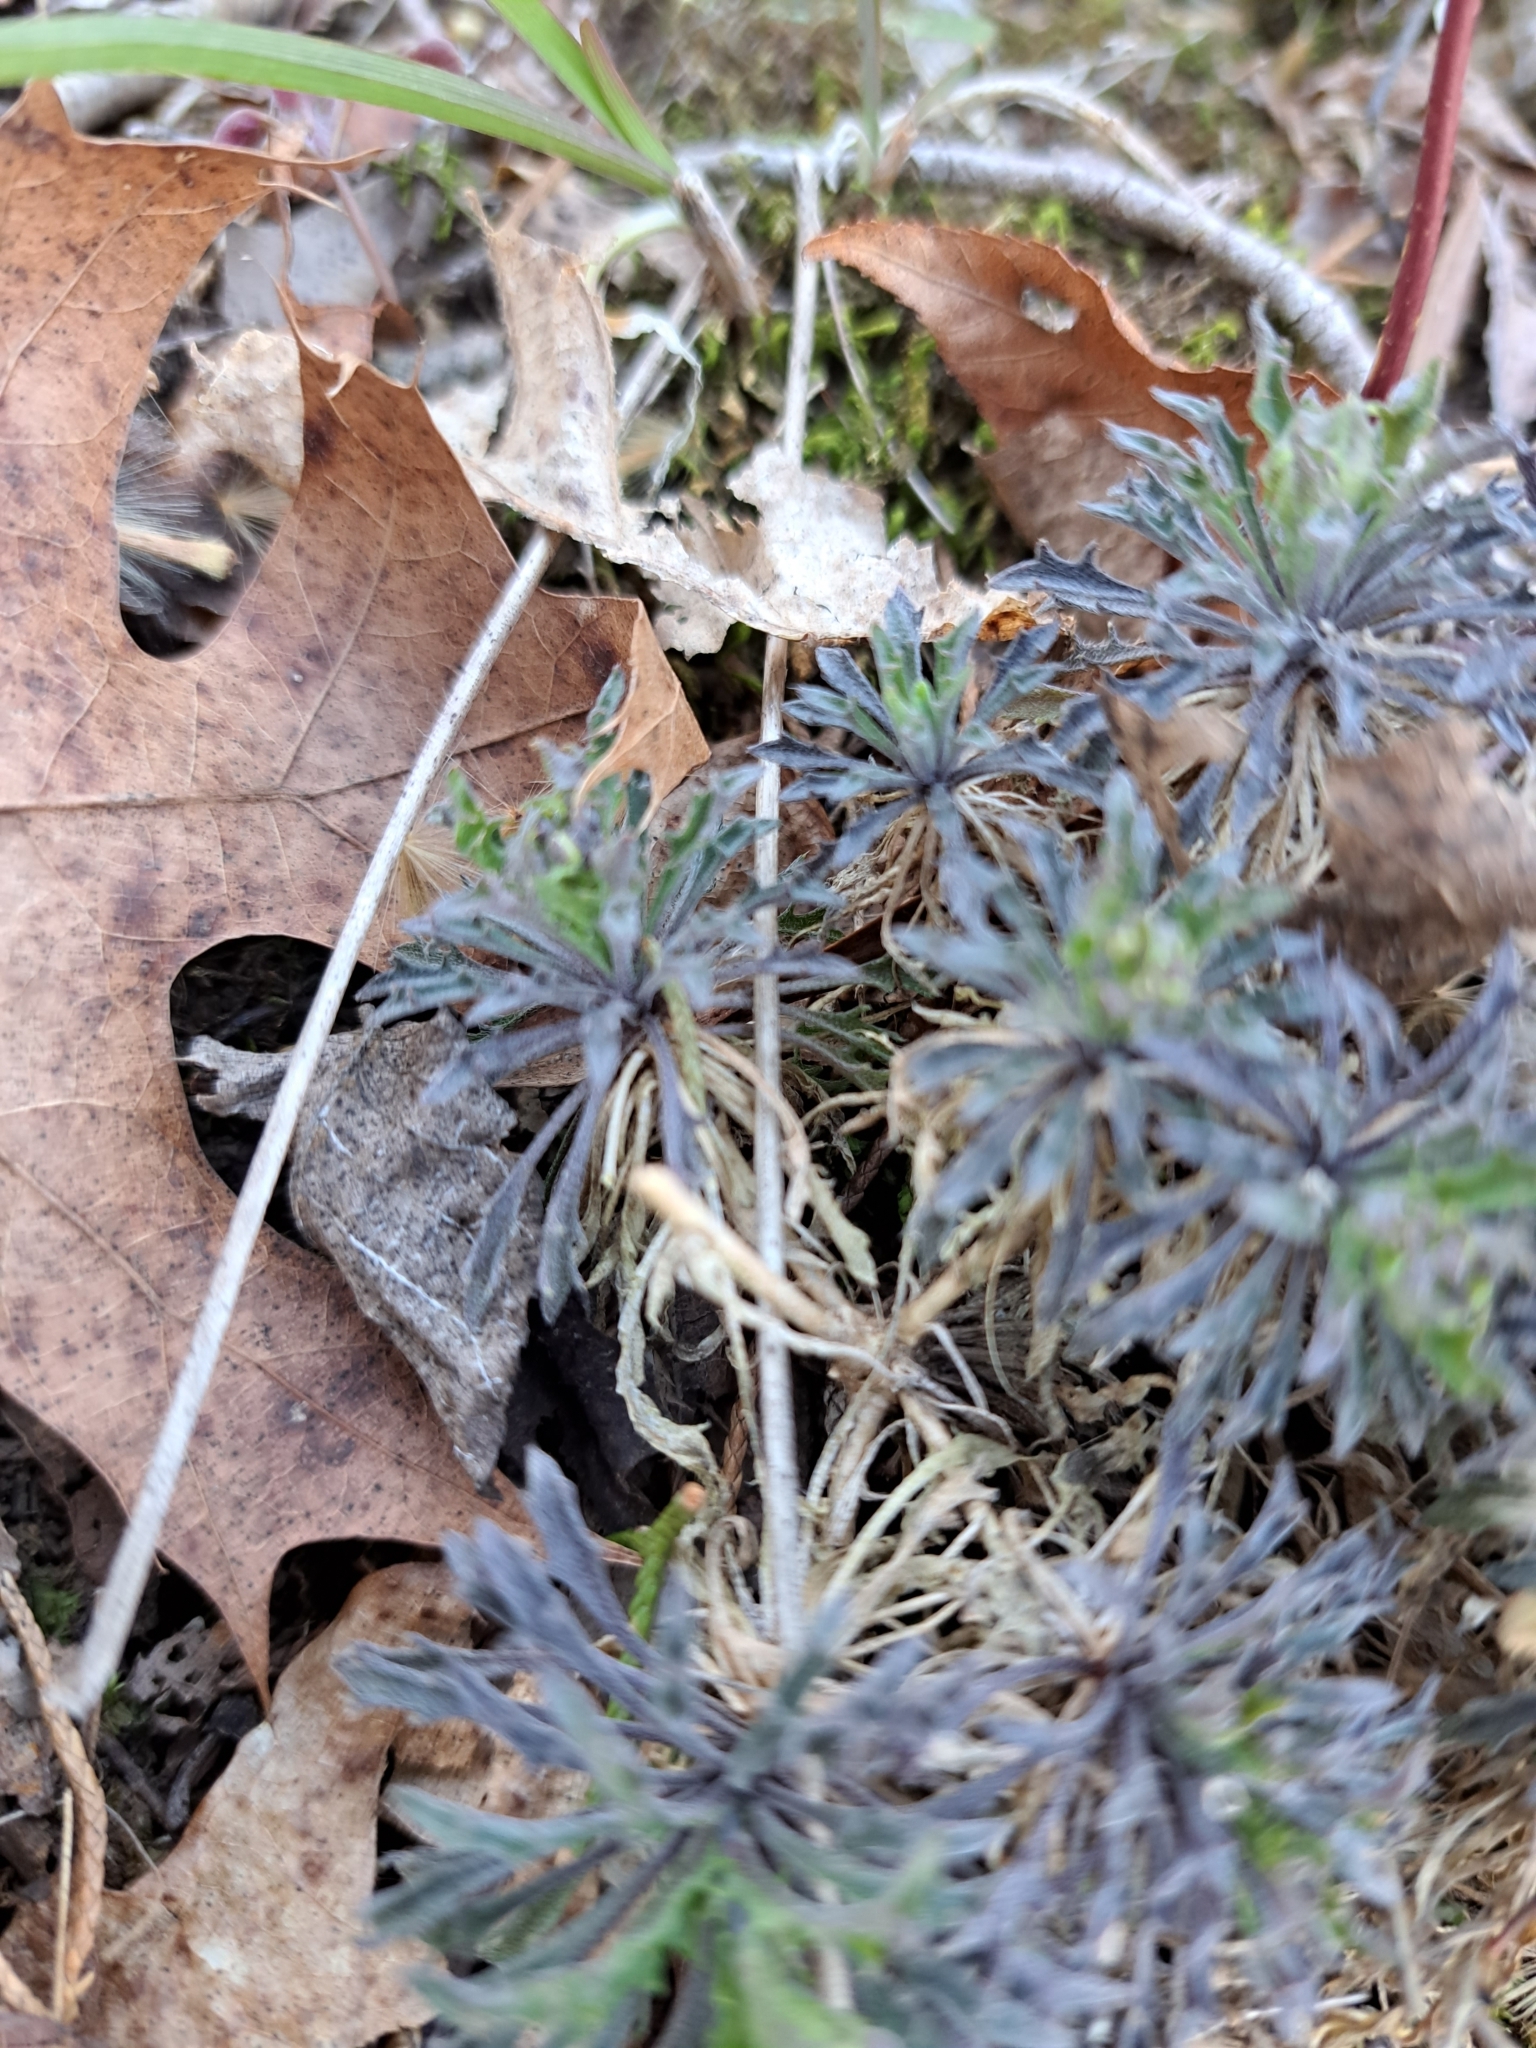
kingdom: Plantae
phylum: Tracheophyta
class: Magnoliopsida
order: Brassicales
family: Brassicaceae
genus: Draba
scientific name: Draba ramosissima
